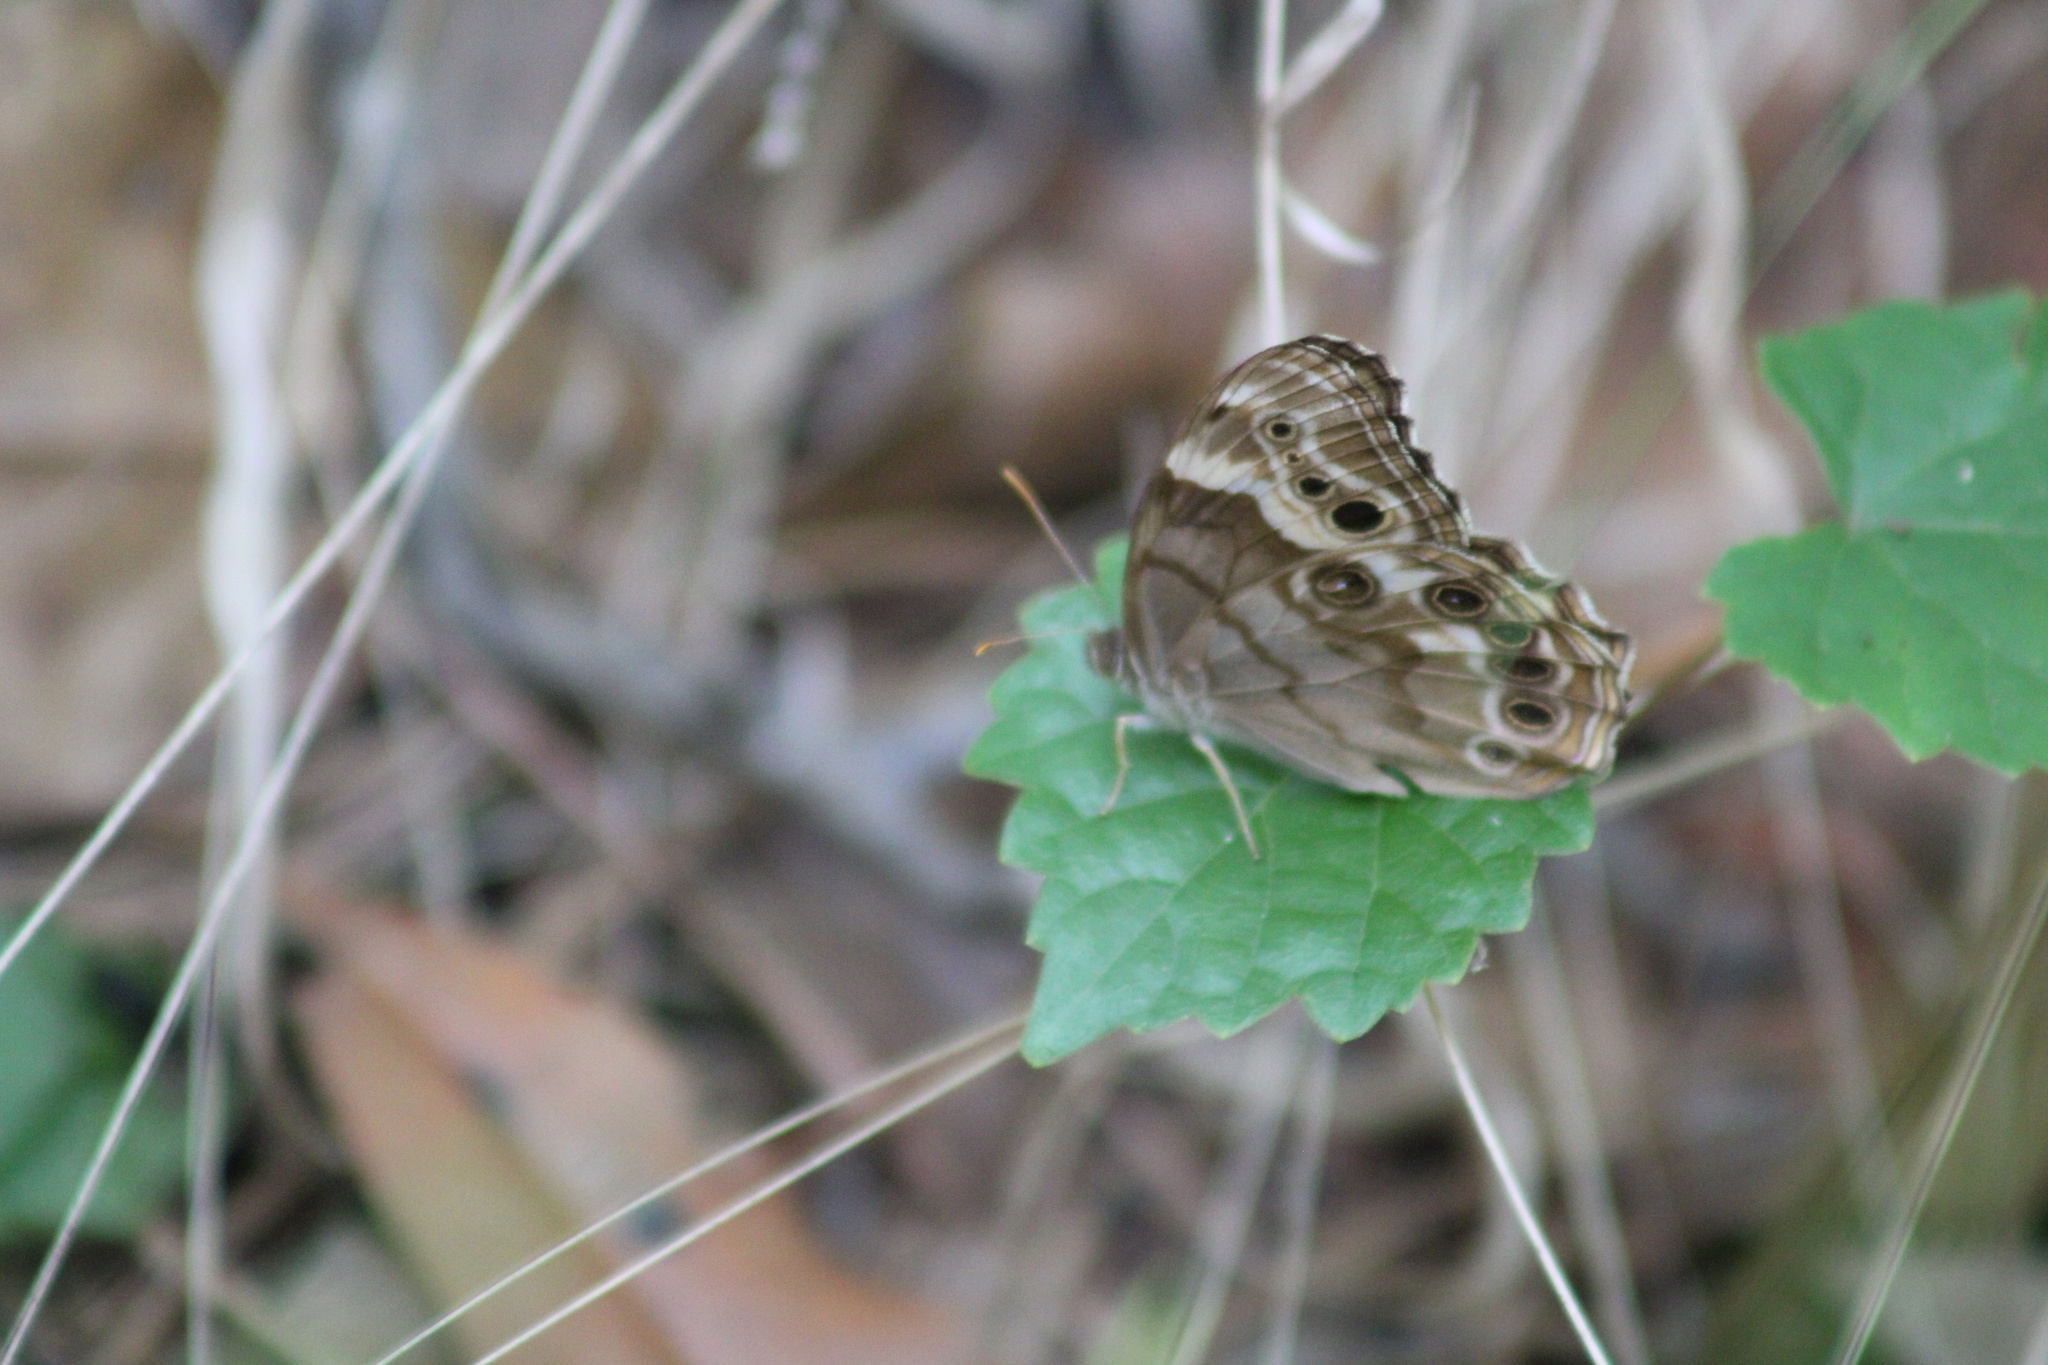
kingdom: Animalia
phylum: Arthropoda
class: Insecta
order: Lepidoptera
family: Nymphalidae
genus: Enodia
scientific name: Enodia portlandia
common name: Southern pearly-eye
